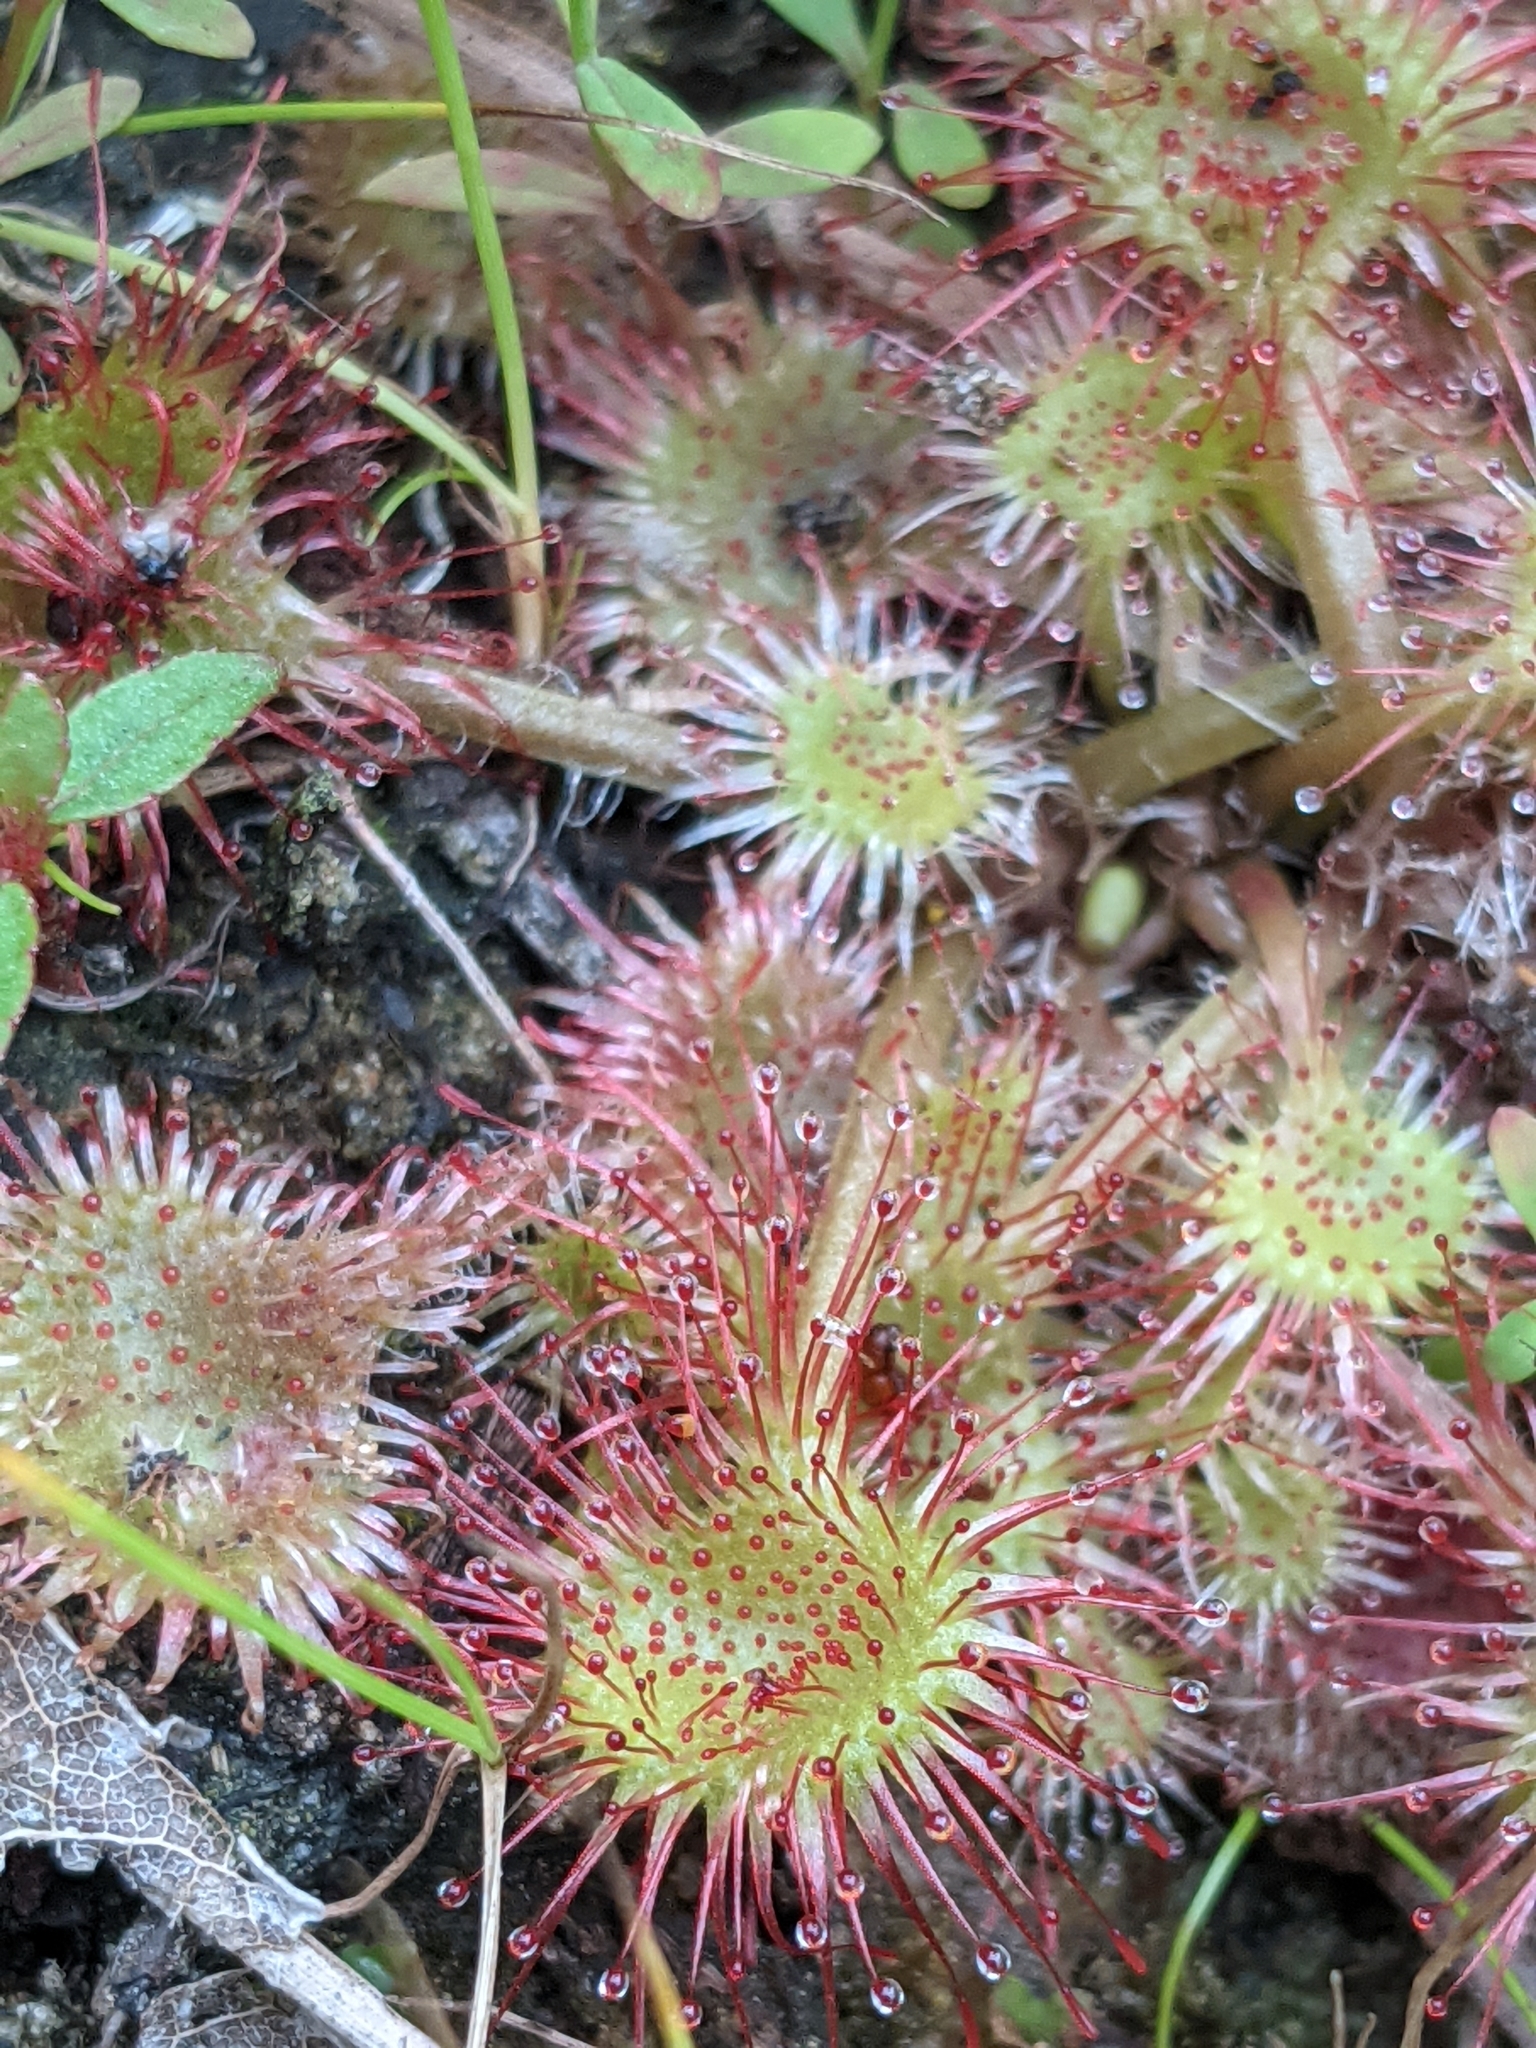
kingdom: Plantae
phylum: Tracheophyta
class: Magnoliopsida
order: Caryophyllales
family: Droseraceae
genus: Drosera
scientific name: Drosera rotundifolia
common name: Round-leaved sundew
